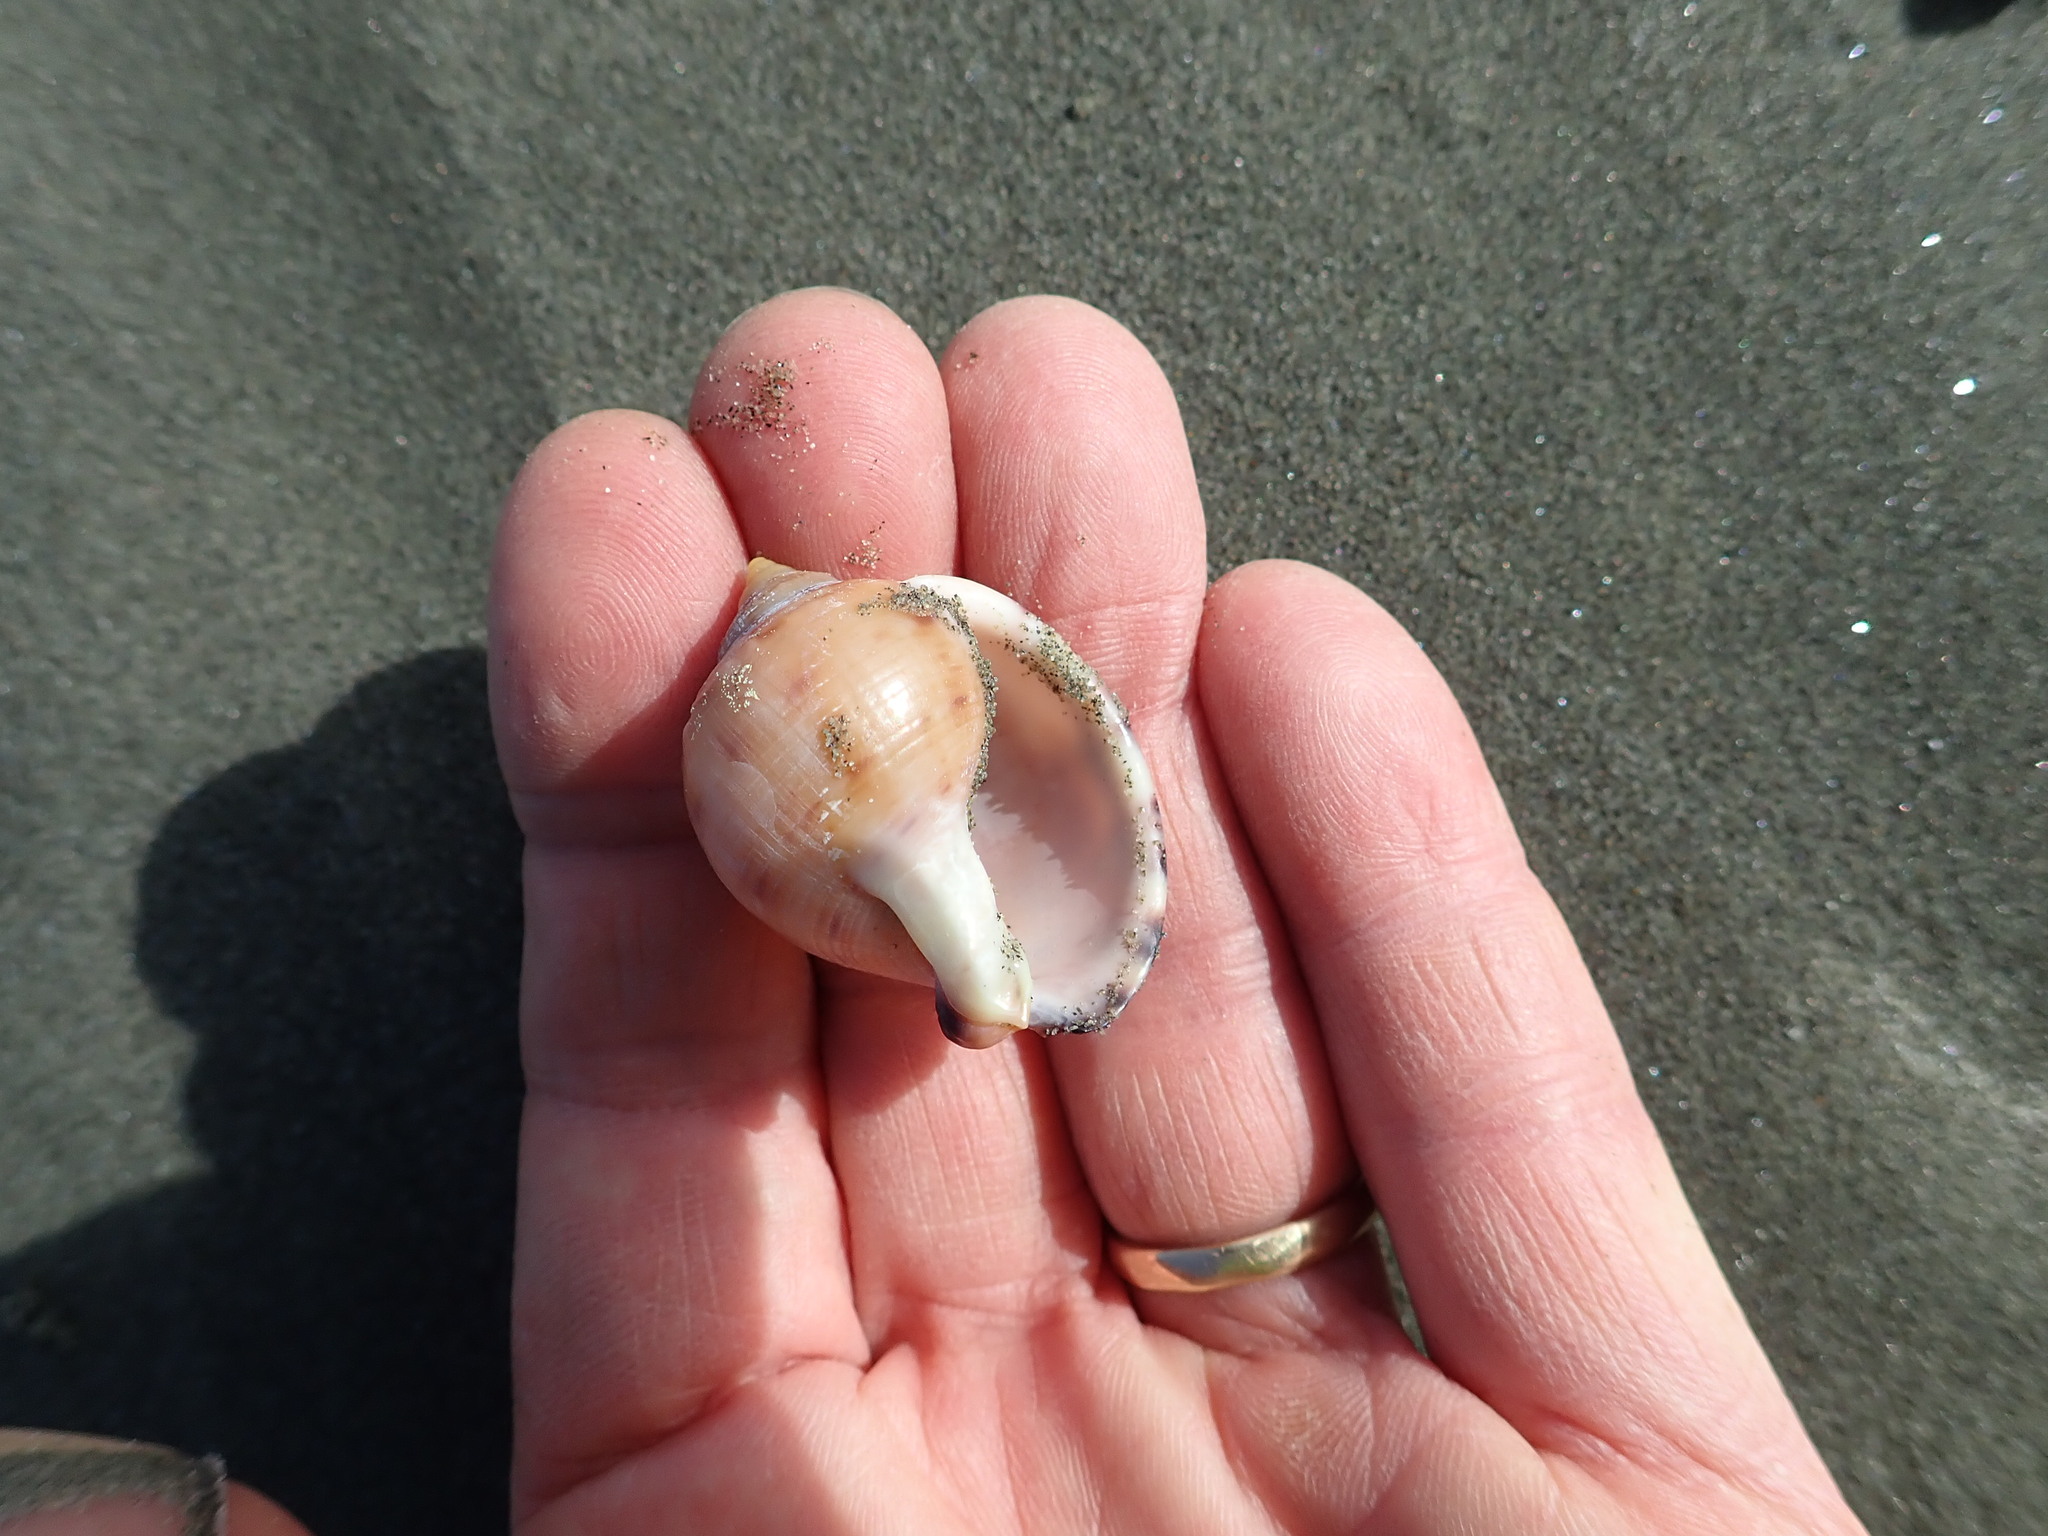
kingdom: Animalia
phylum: Mollusca
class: Gastropoda
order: Littorinimorpha
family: Cassidae
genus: Semicassis
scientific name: Semicassis pyrum
